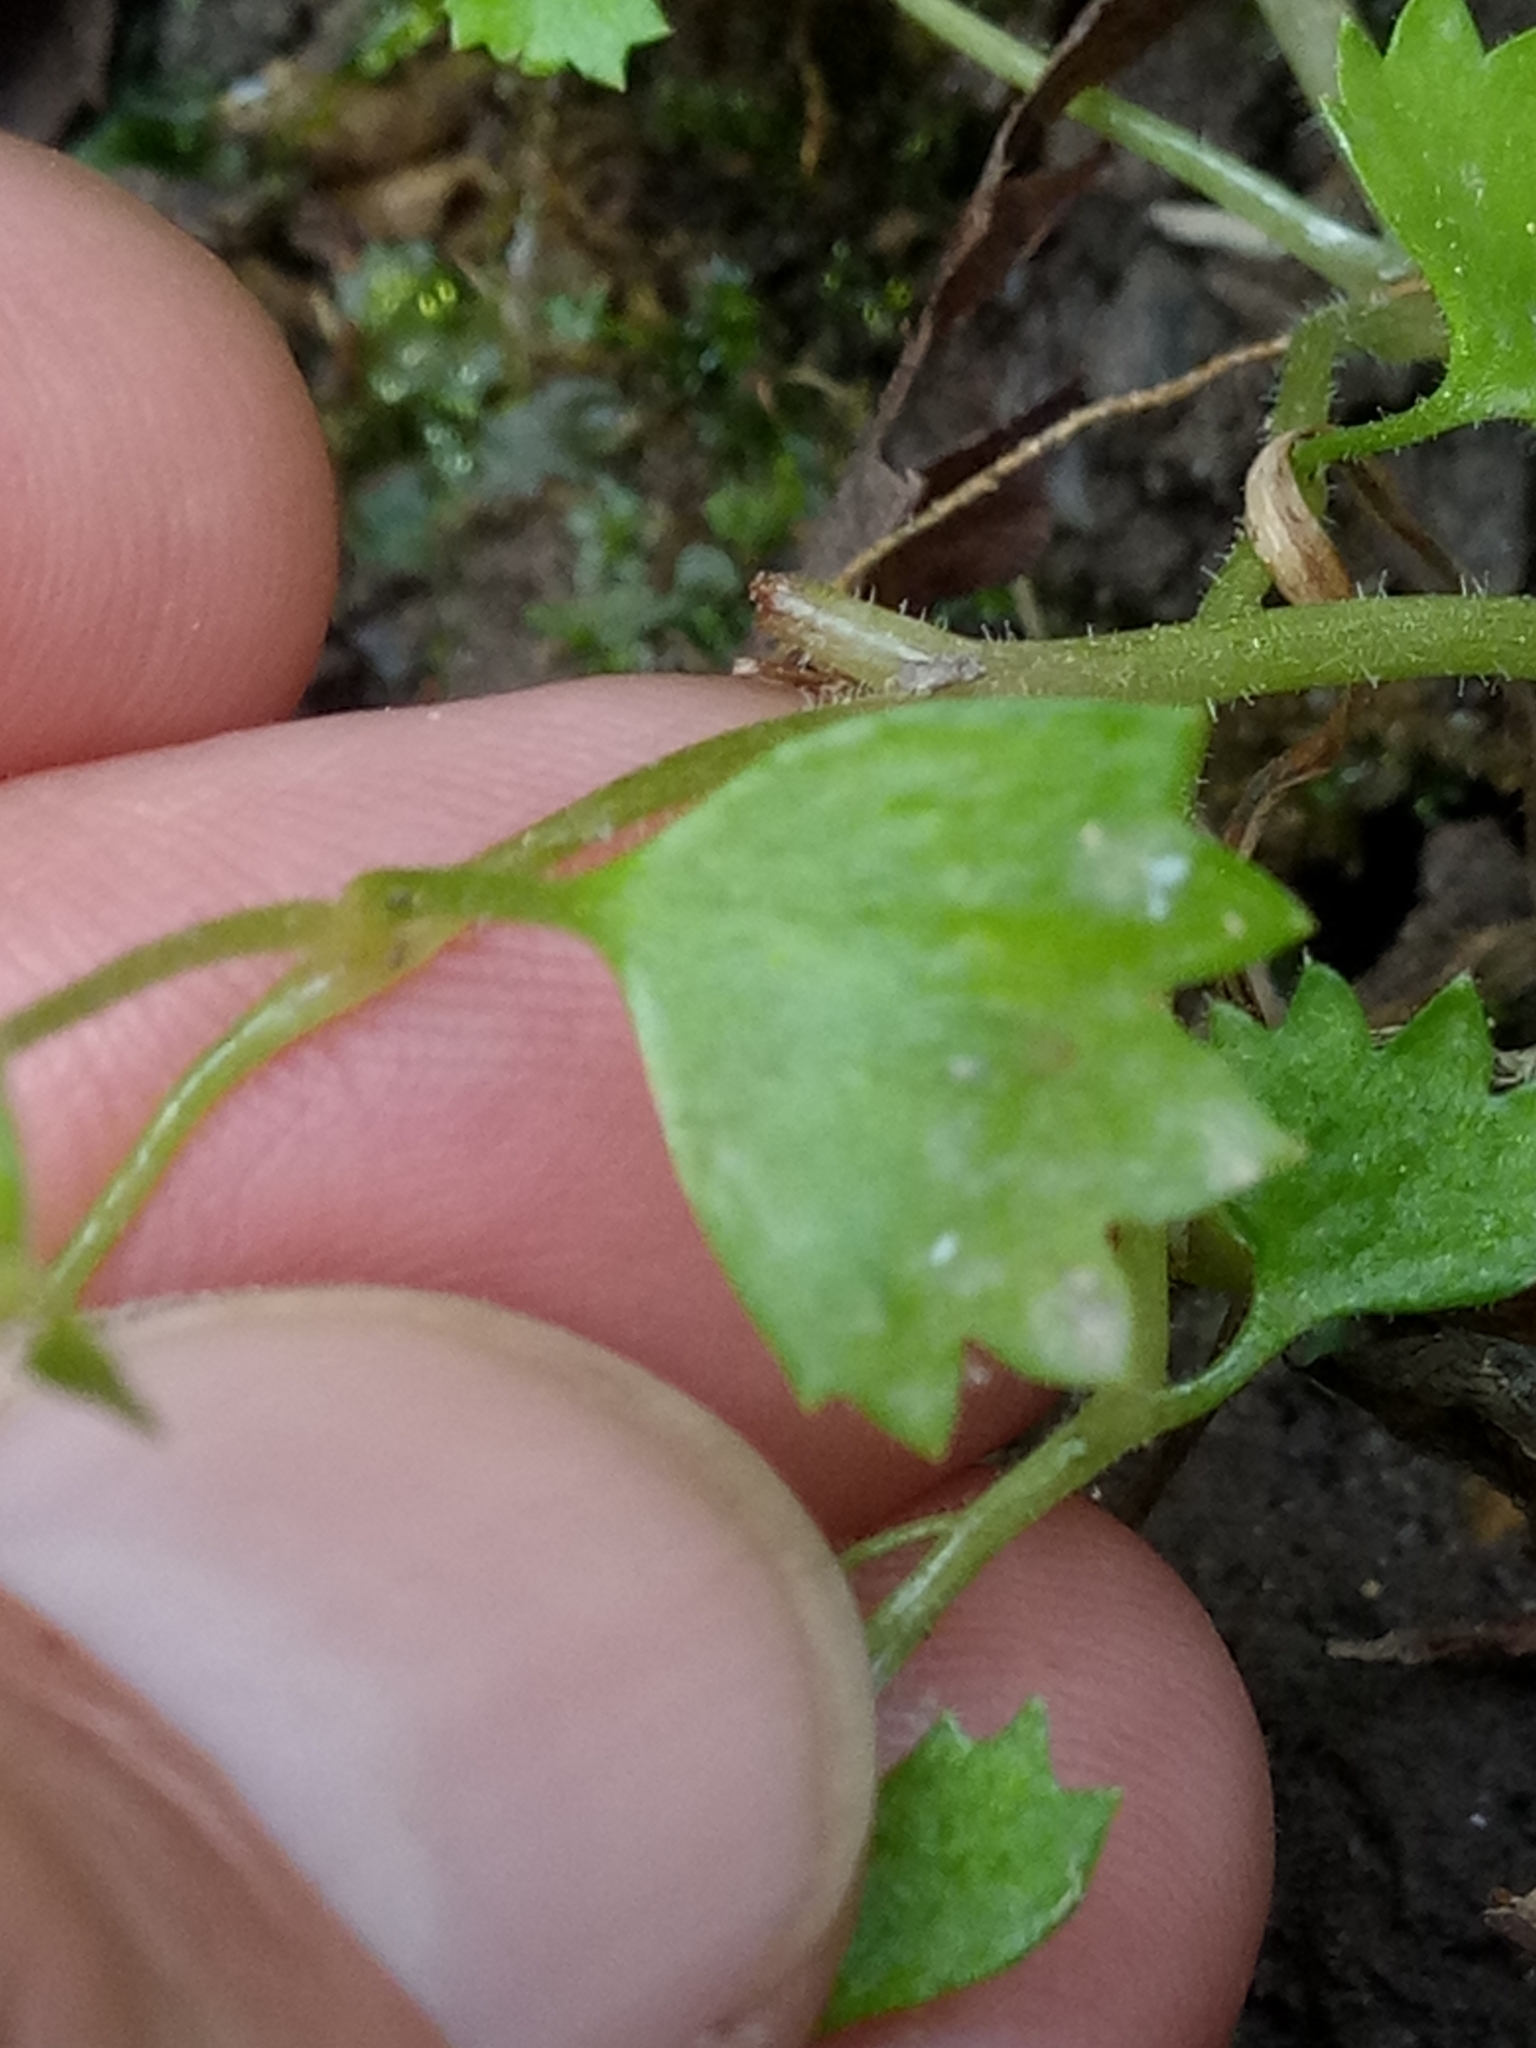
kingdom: Plantae
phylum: Tracheophyta
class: Magnoliopsida
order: Saxifragales
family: Saxifragaceae
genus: Saxifraga
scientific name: Saxifraga cymbalaria
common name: Celandine saxifrage
